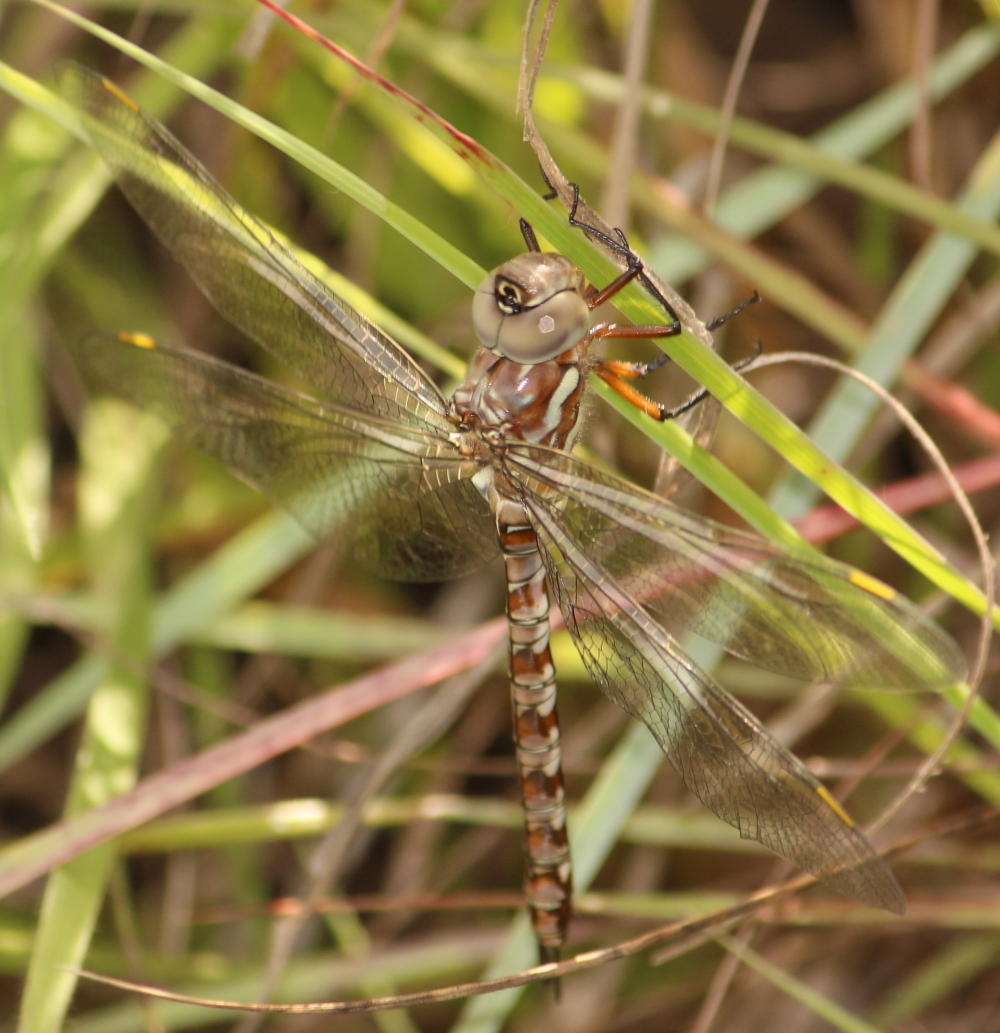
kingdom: Animalia
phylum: Arthropoda
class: Insecta
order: Odonata
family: Aeshnidae
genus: Pinheyschna
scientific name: Pinheyschna subpupillata
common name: Stream hawker
